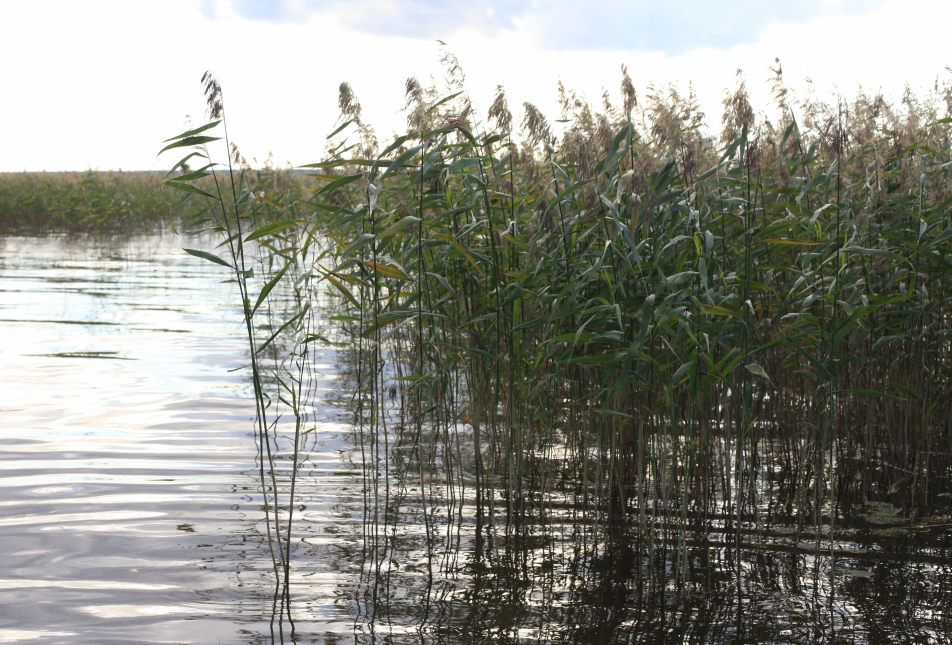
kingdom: Plantae
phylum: Tracheophyta
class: Liliopsida
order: Poales
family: Poaceae
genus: Phragmites
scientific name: Phragmites australis
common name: Common reed
